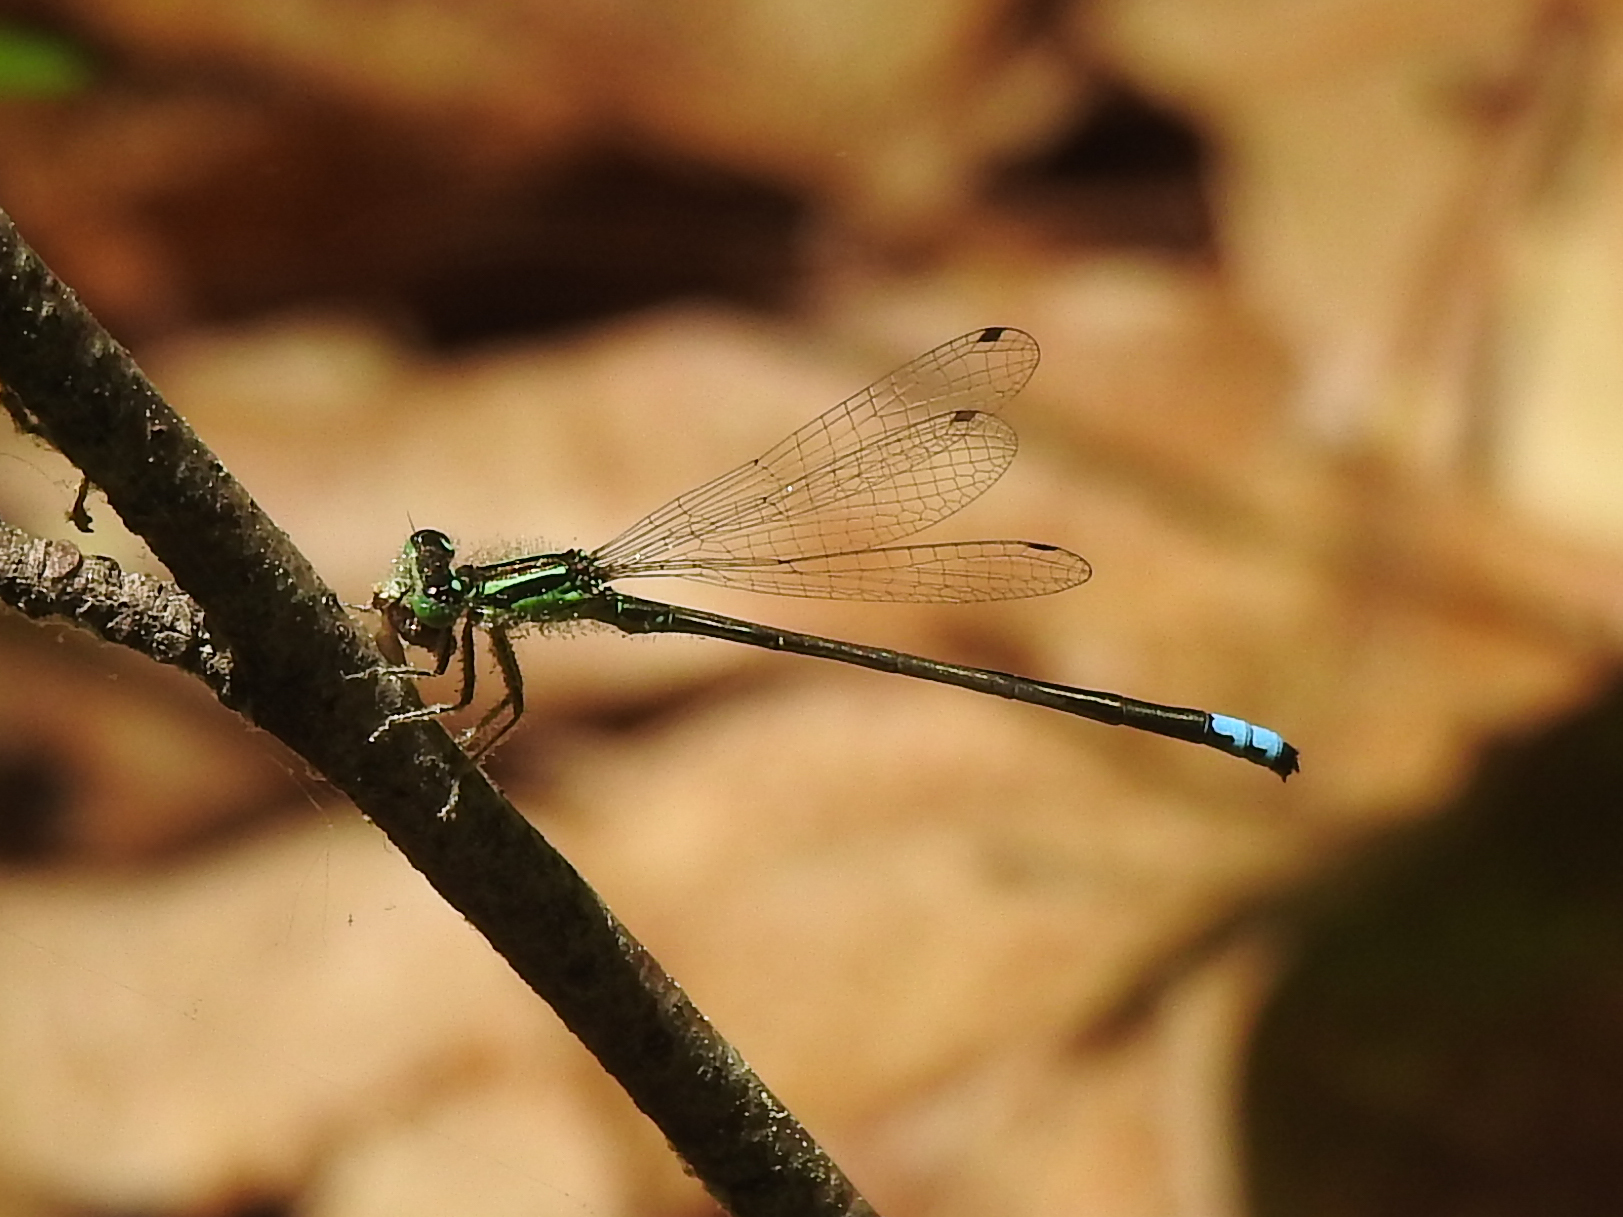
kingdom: Animalia
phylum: Arthropoda
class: Insecta
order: Odonata
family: Coenagrionidae
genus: Ischnura
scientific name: Ischnura verticalis
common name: Eastern forktail
